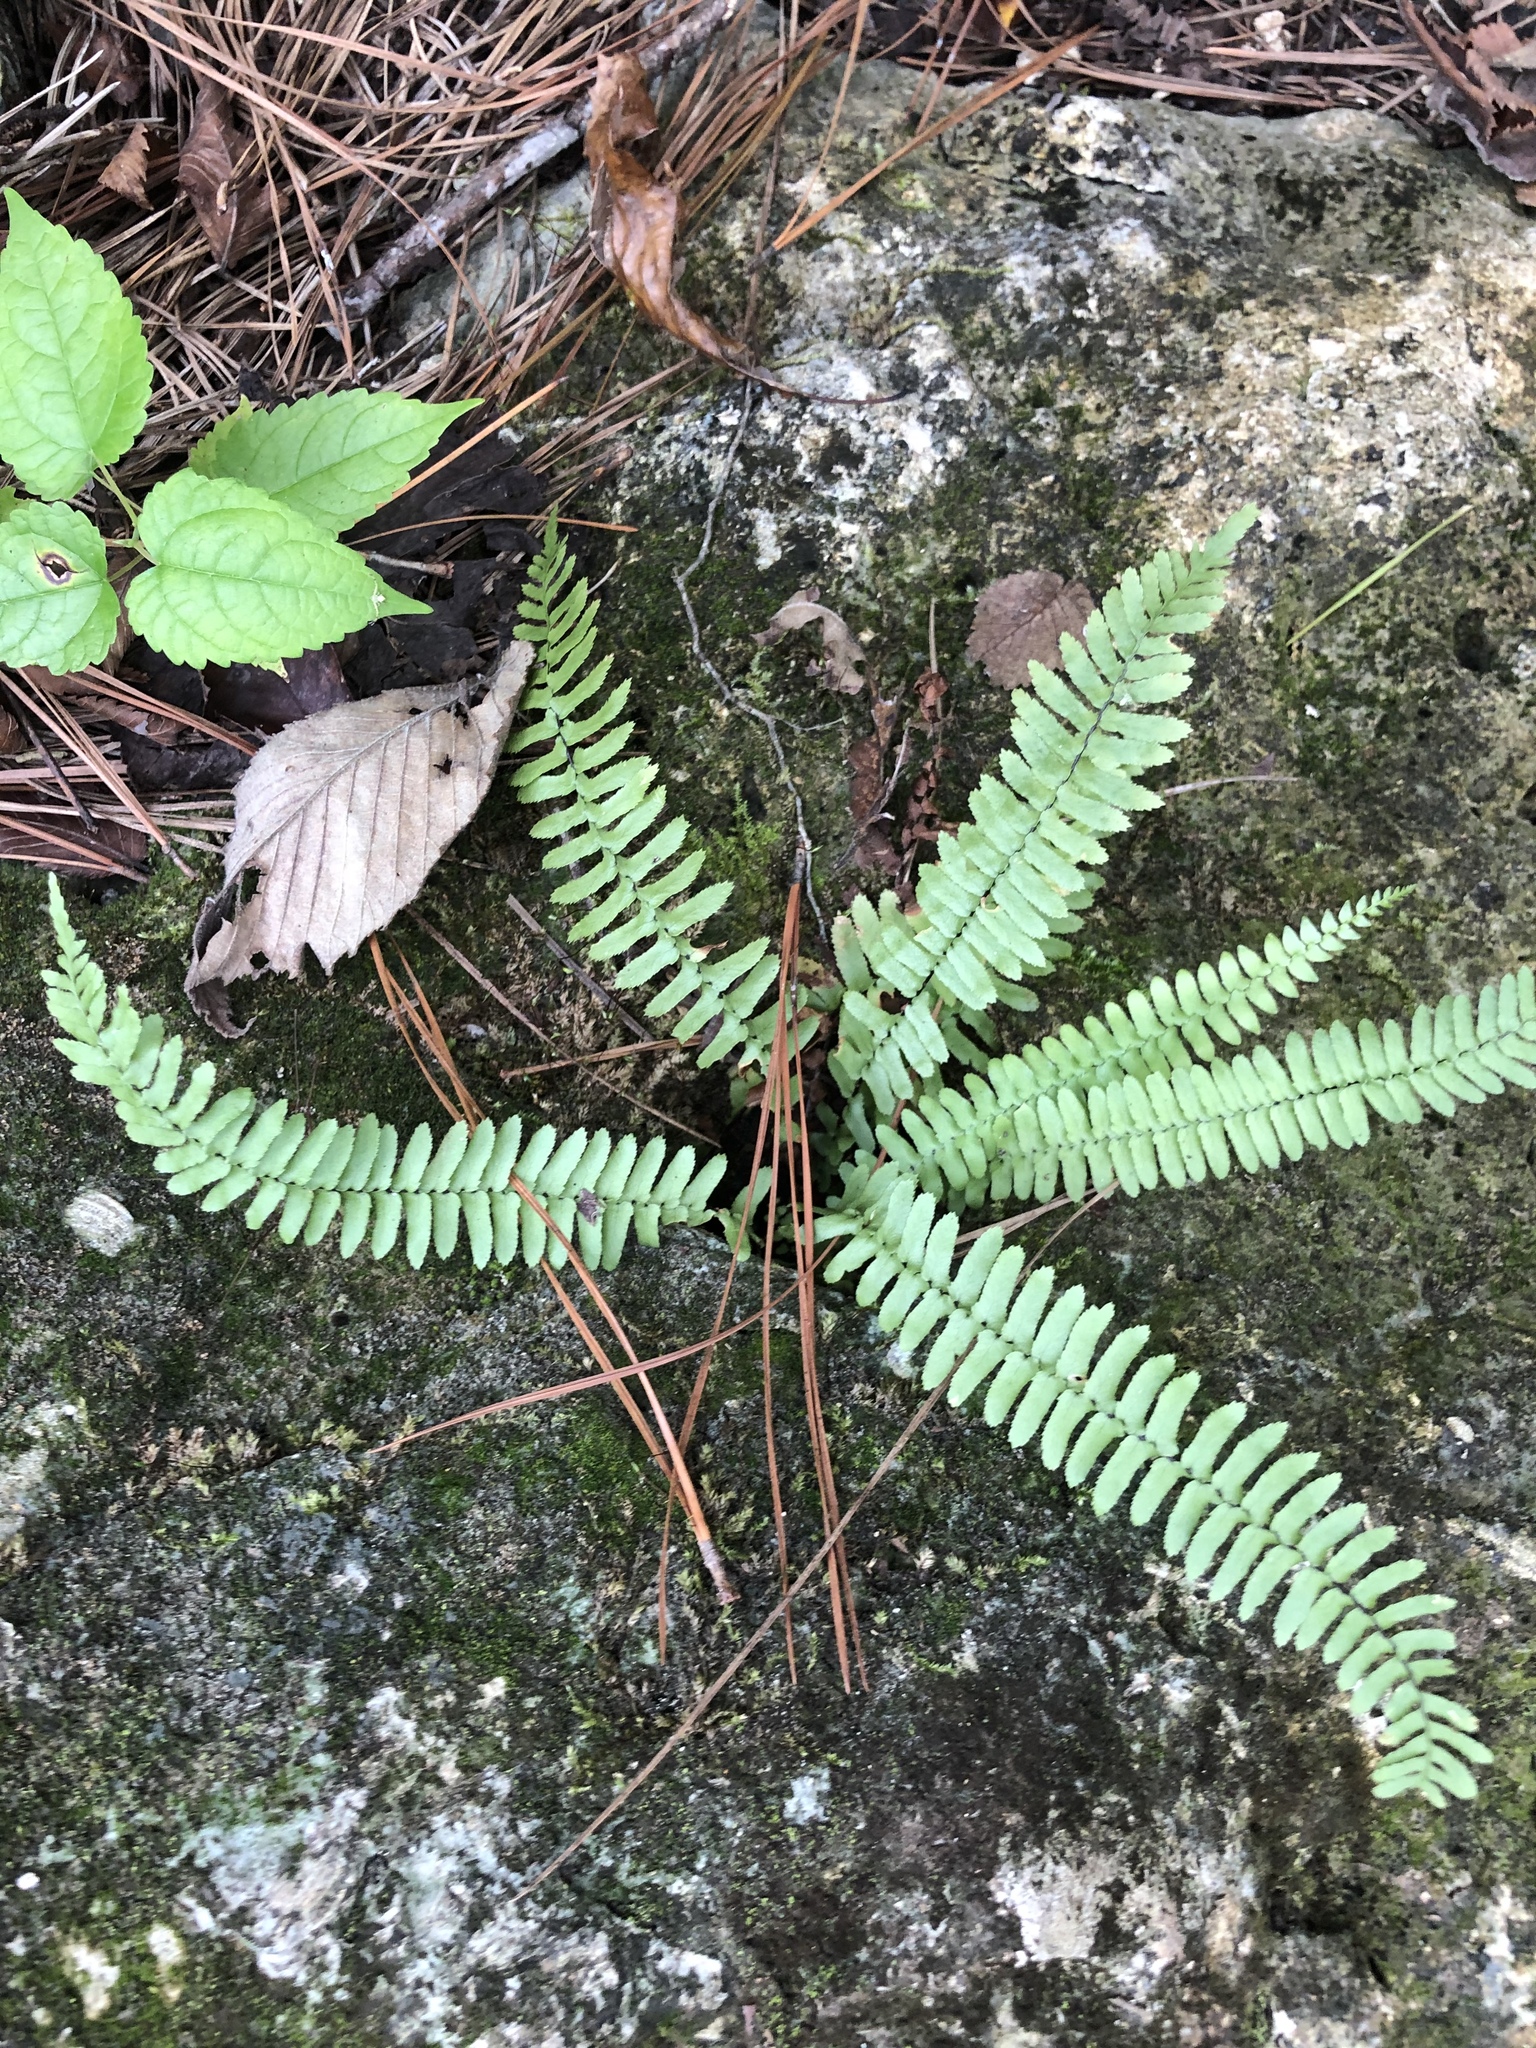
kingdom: Plantae
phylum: Tracheophyta
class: Polypodiopsida
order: Polypodiales
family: Aspleniaceae
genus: Asplenium
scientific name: Asplenium platyneuron
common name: Ebony spleenwort
